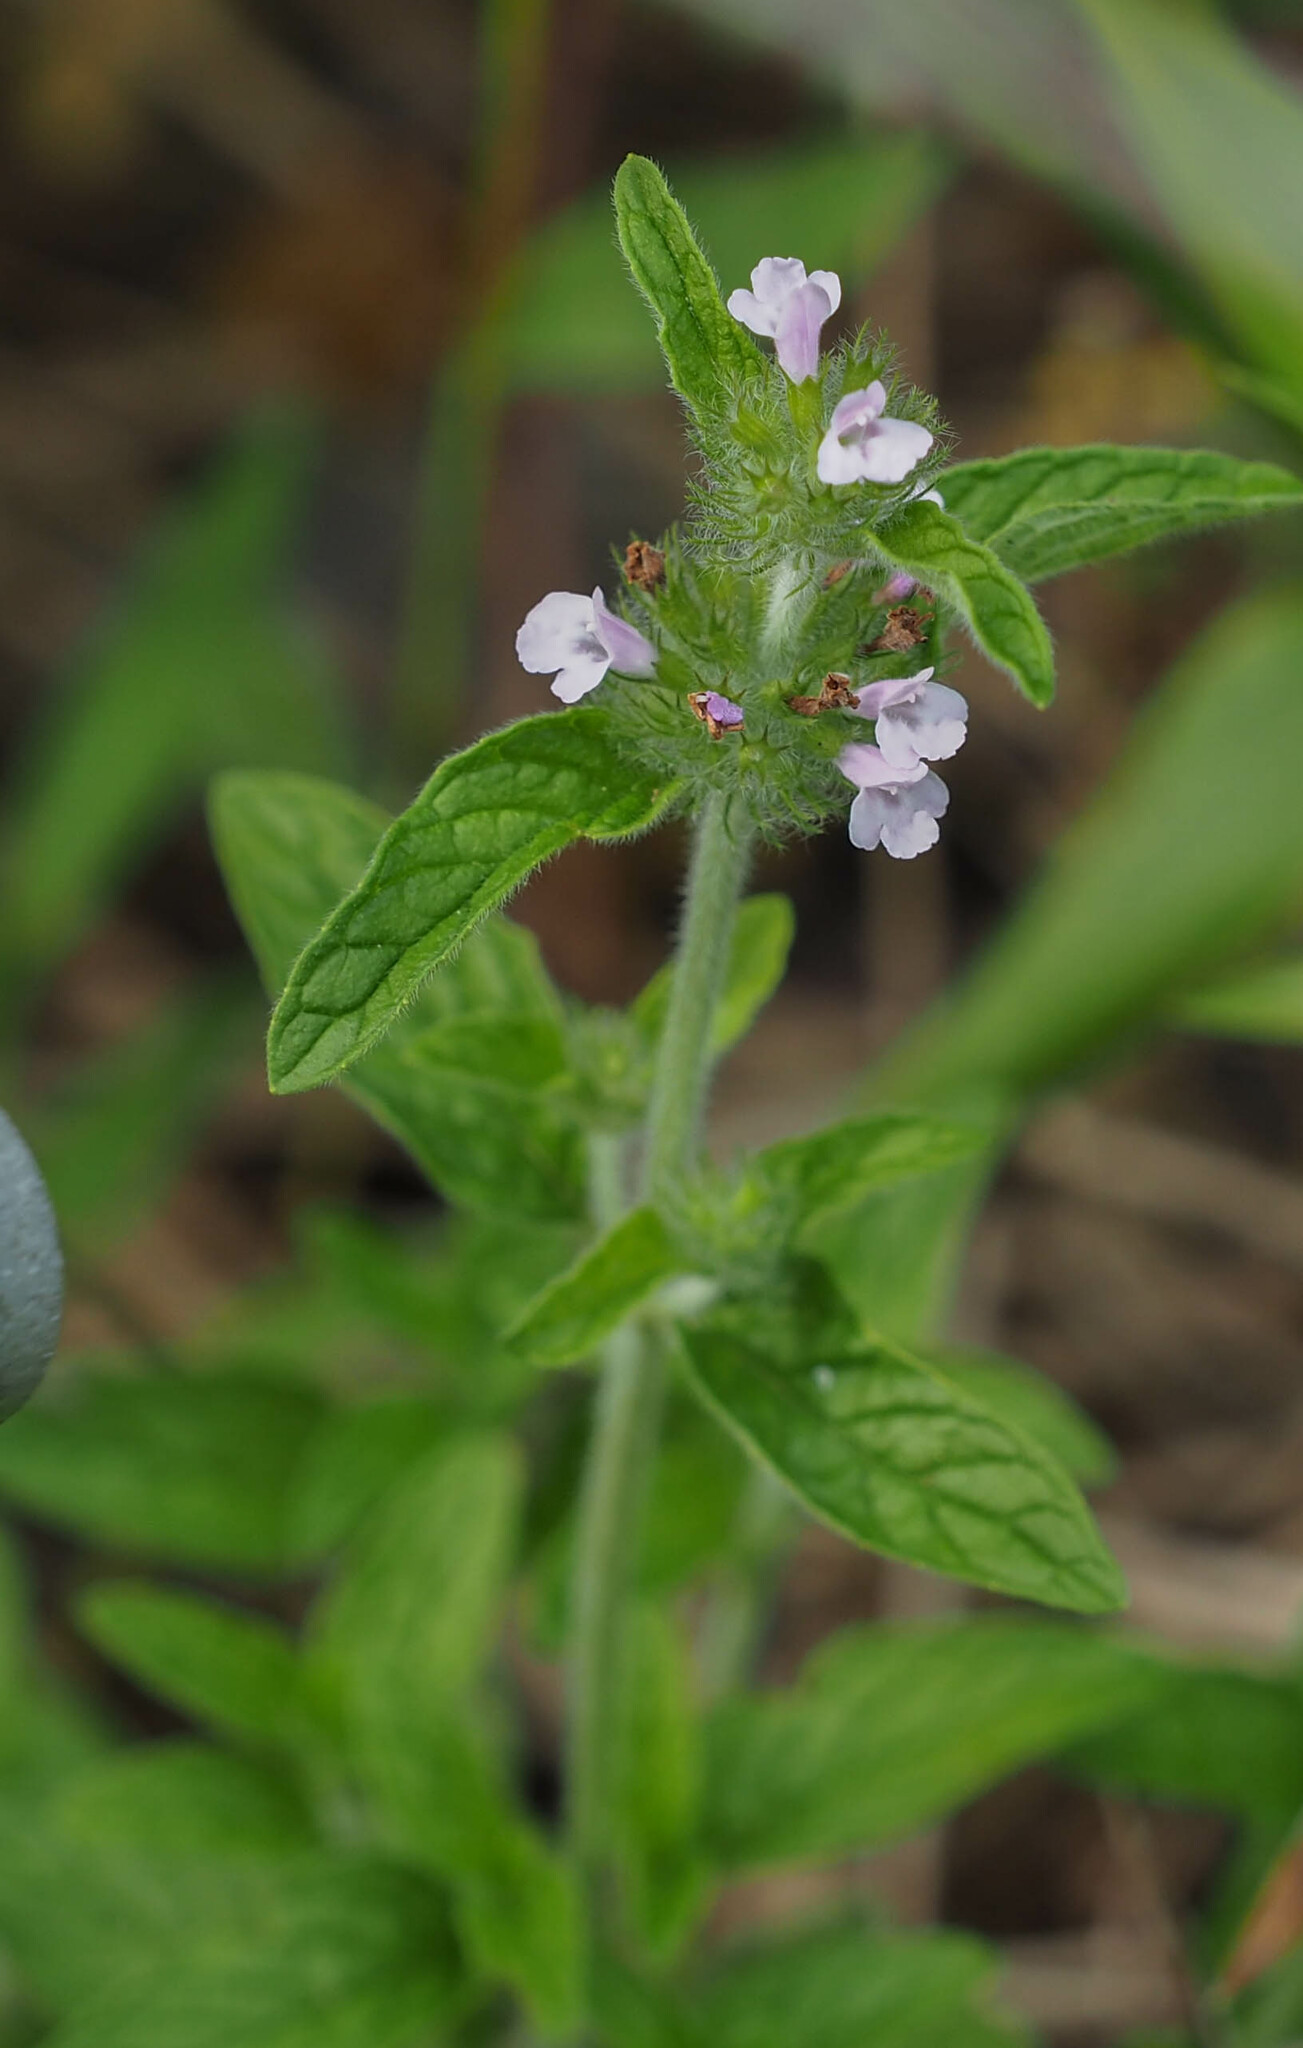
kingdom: Plantae
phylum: Tracheophyta
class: Magnoliopsida
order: Lamiales
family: Lamiaceae
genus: Clinopodium
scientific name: Clinopodium vulgare
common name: Wild basil
